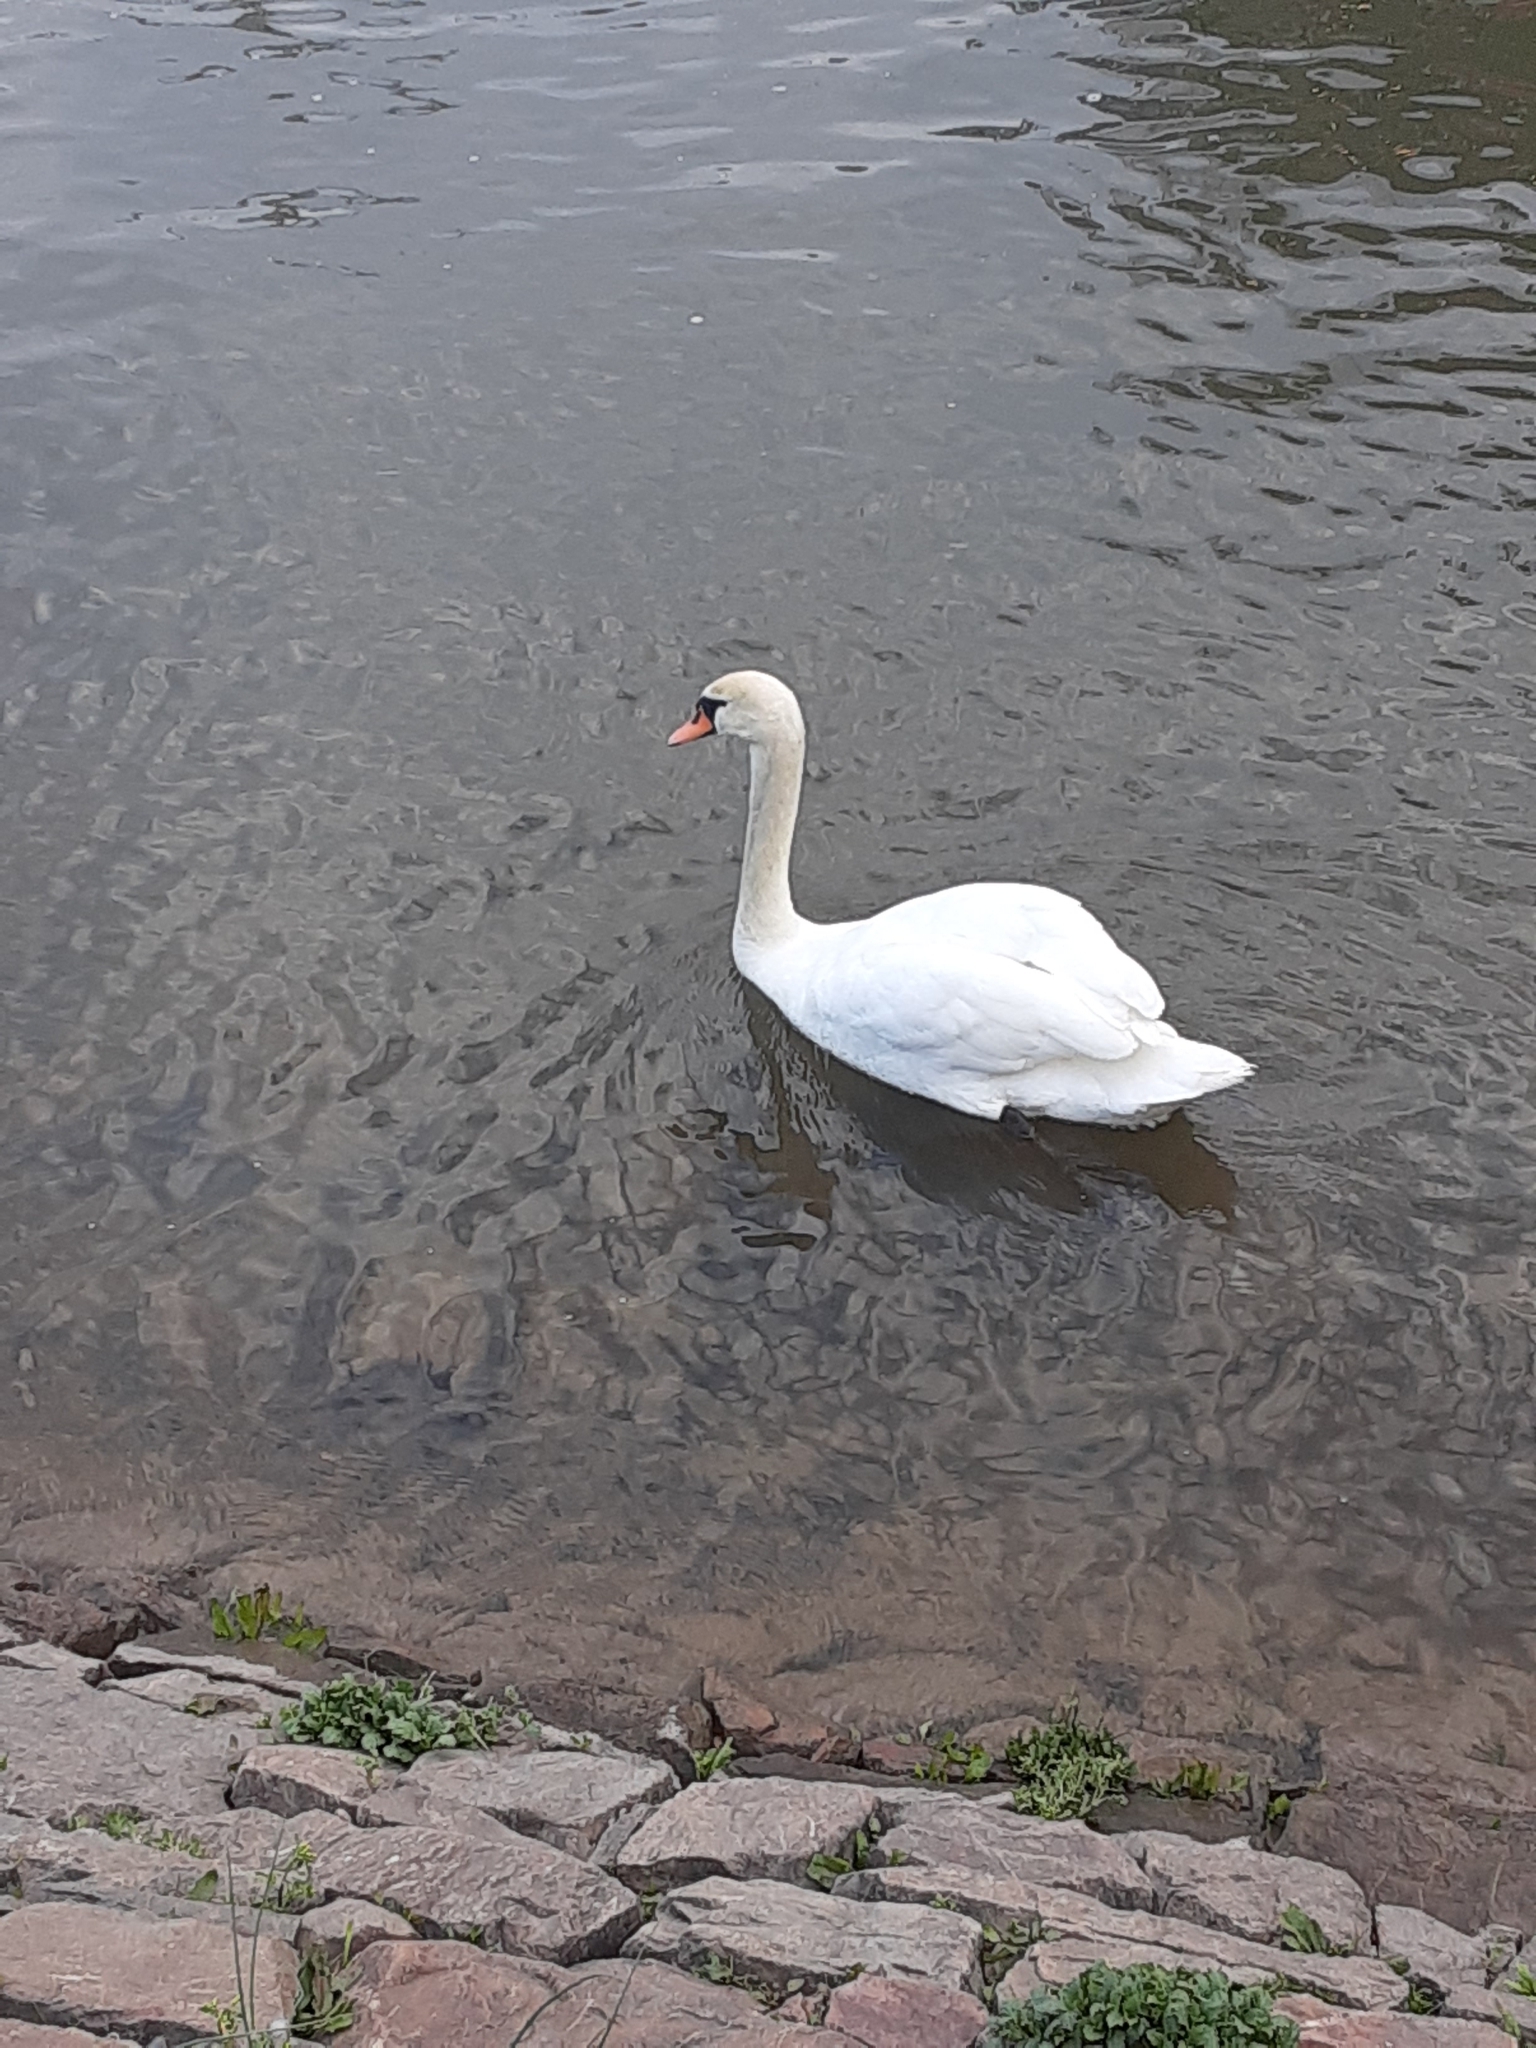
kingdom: Animalia
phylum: Chordata
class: Aves
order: Anseriformes
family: Anatidae
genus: Cygnus
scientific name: Cygnus olor
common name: Mute swan
